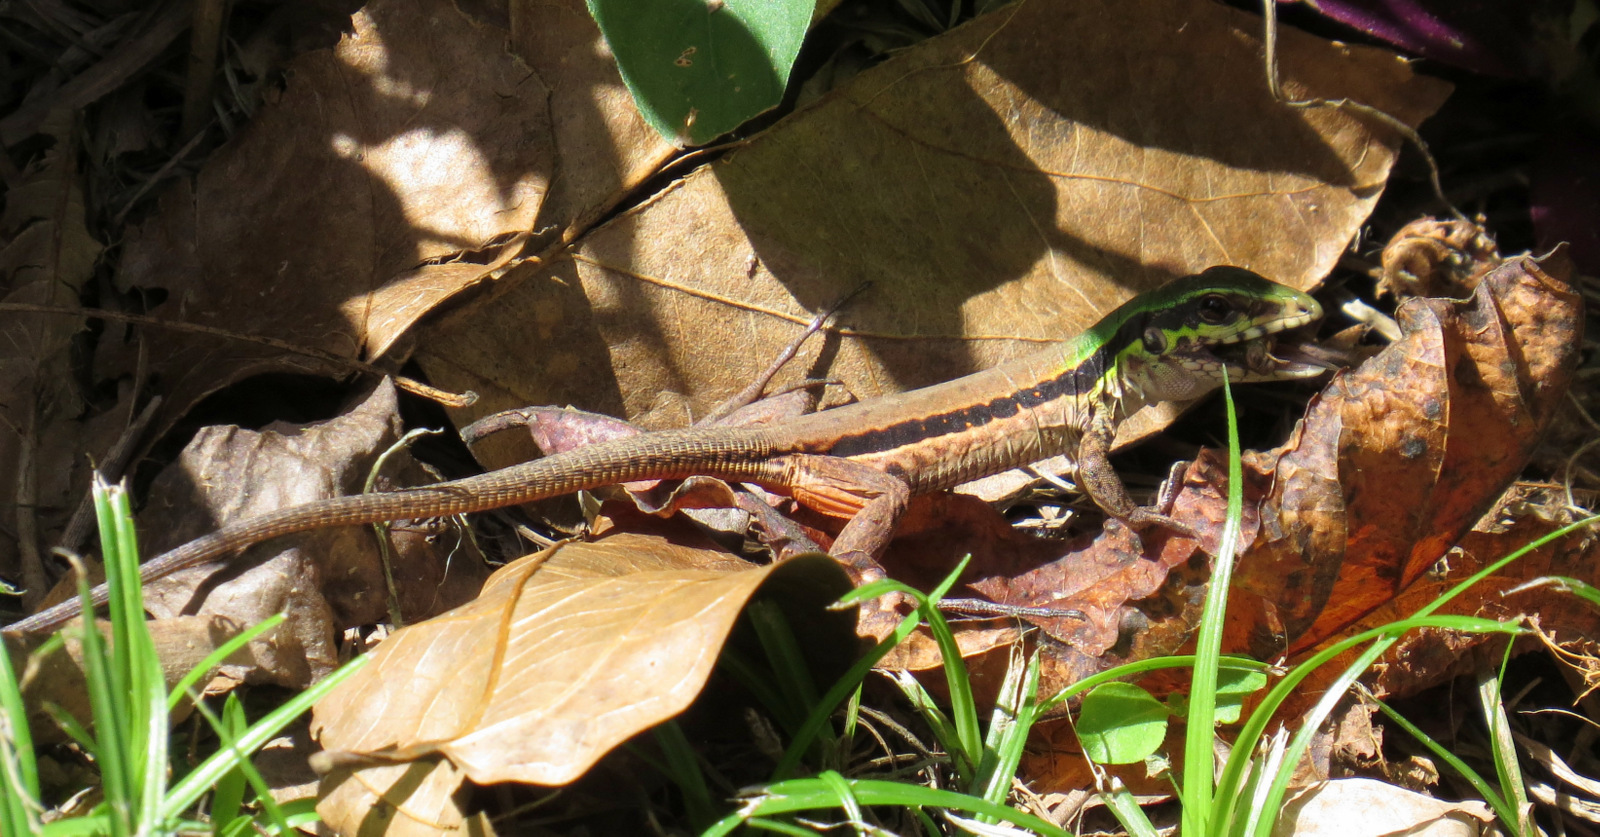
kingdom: Animalia
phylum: Chordata
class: Squamata
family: Teiidae
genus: Ameiva
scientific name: Ameiva atrigularis
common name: Venezuelan ameiva
